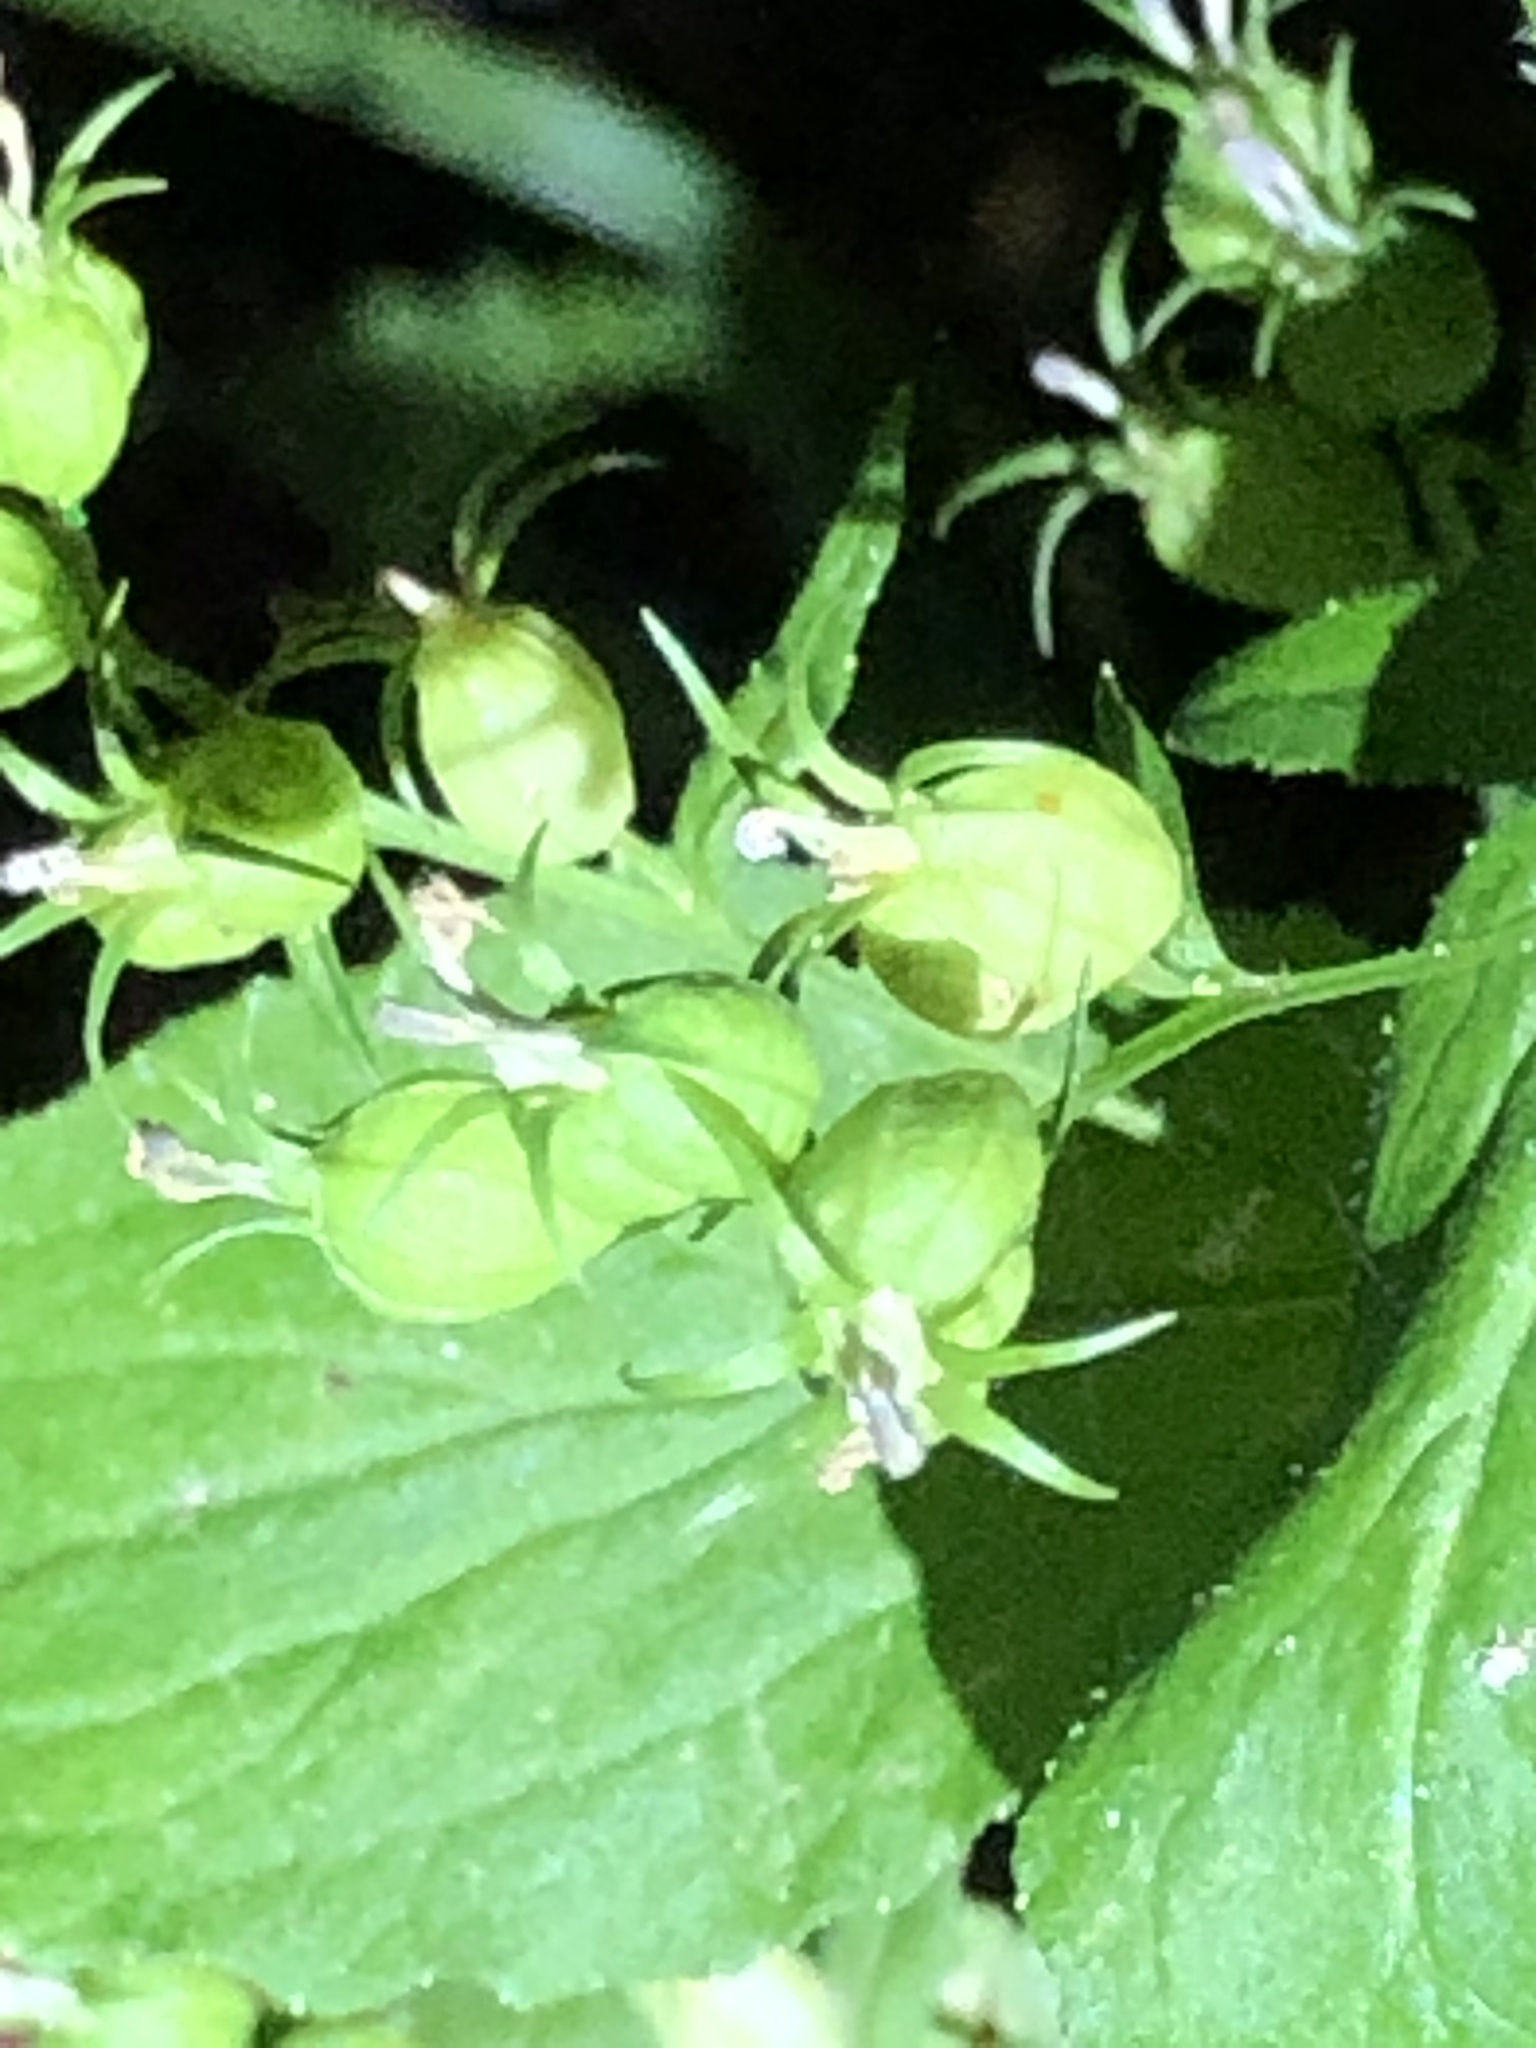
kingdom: Plantae
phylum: Tracheophyta
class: Magnoliopsida
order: Asterales
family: Campanulaceae
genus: Lobelia
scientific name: Lobelia inflata
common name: Indian tobacco
